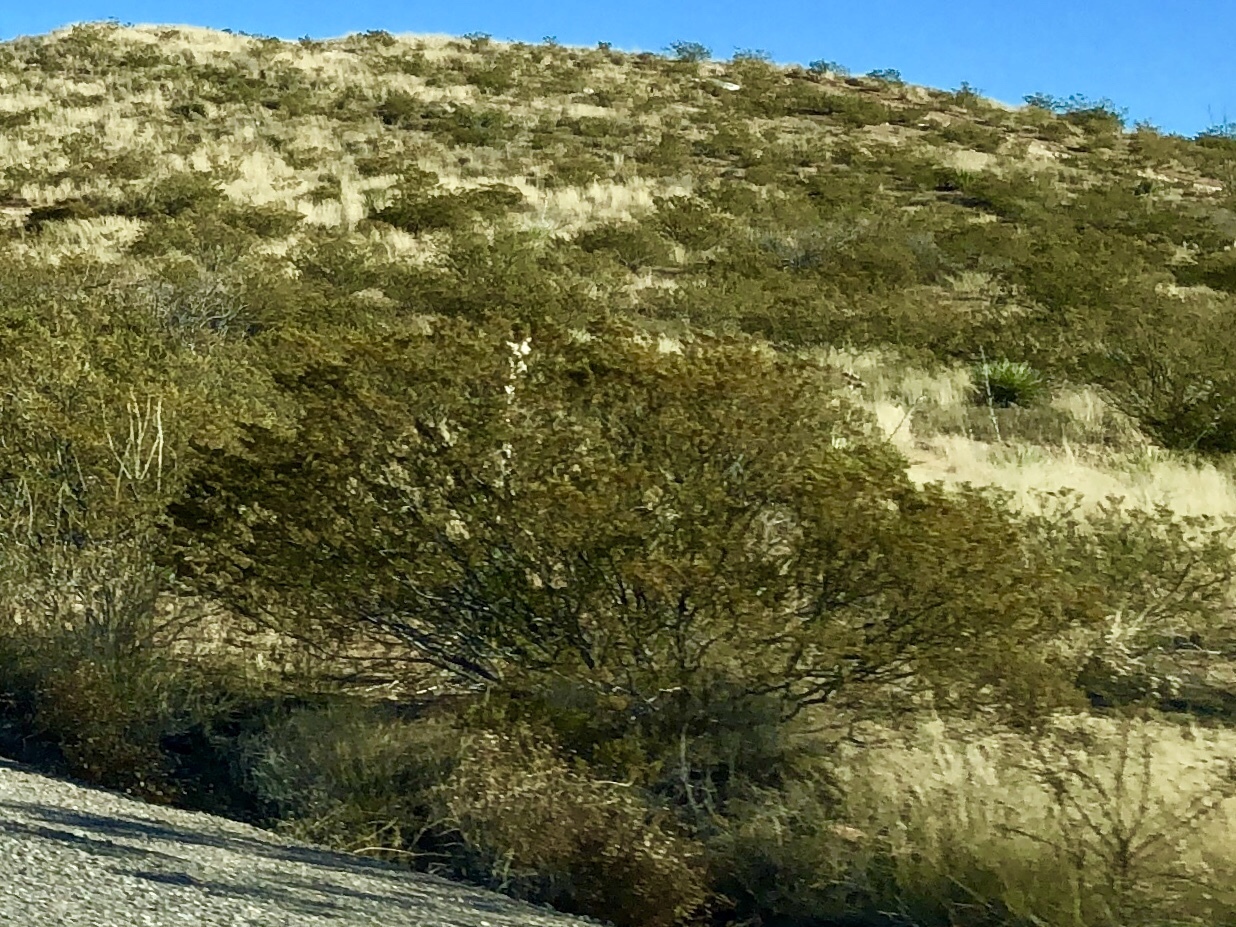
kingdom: Plantae
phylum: Tracheophyta
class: Magnoliopsida
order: Zygophyllales
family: Zygophyllaceae
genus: Larrea
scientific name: Larrea tridentata
